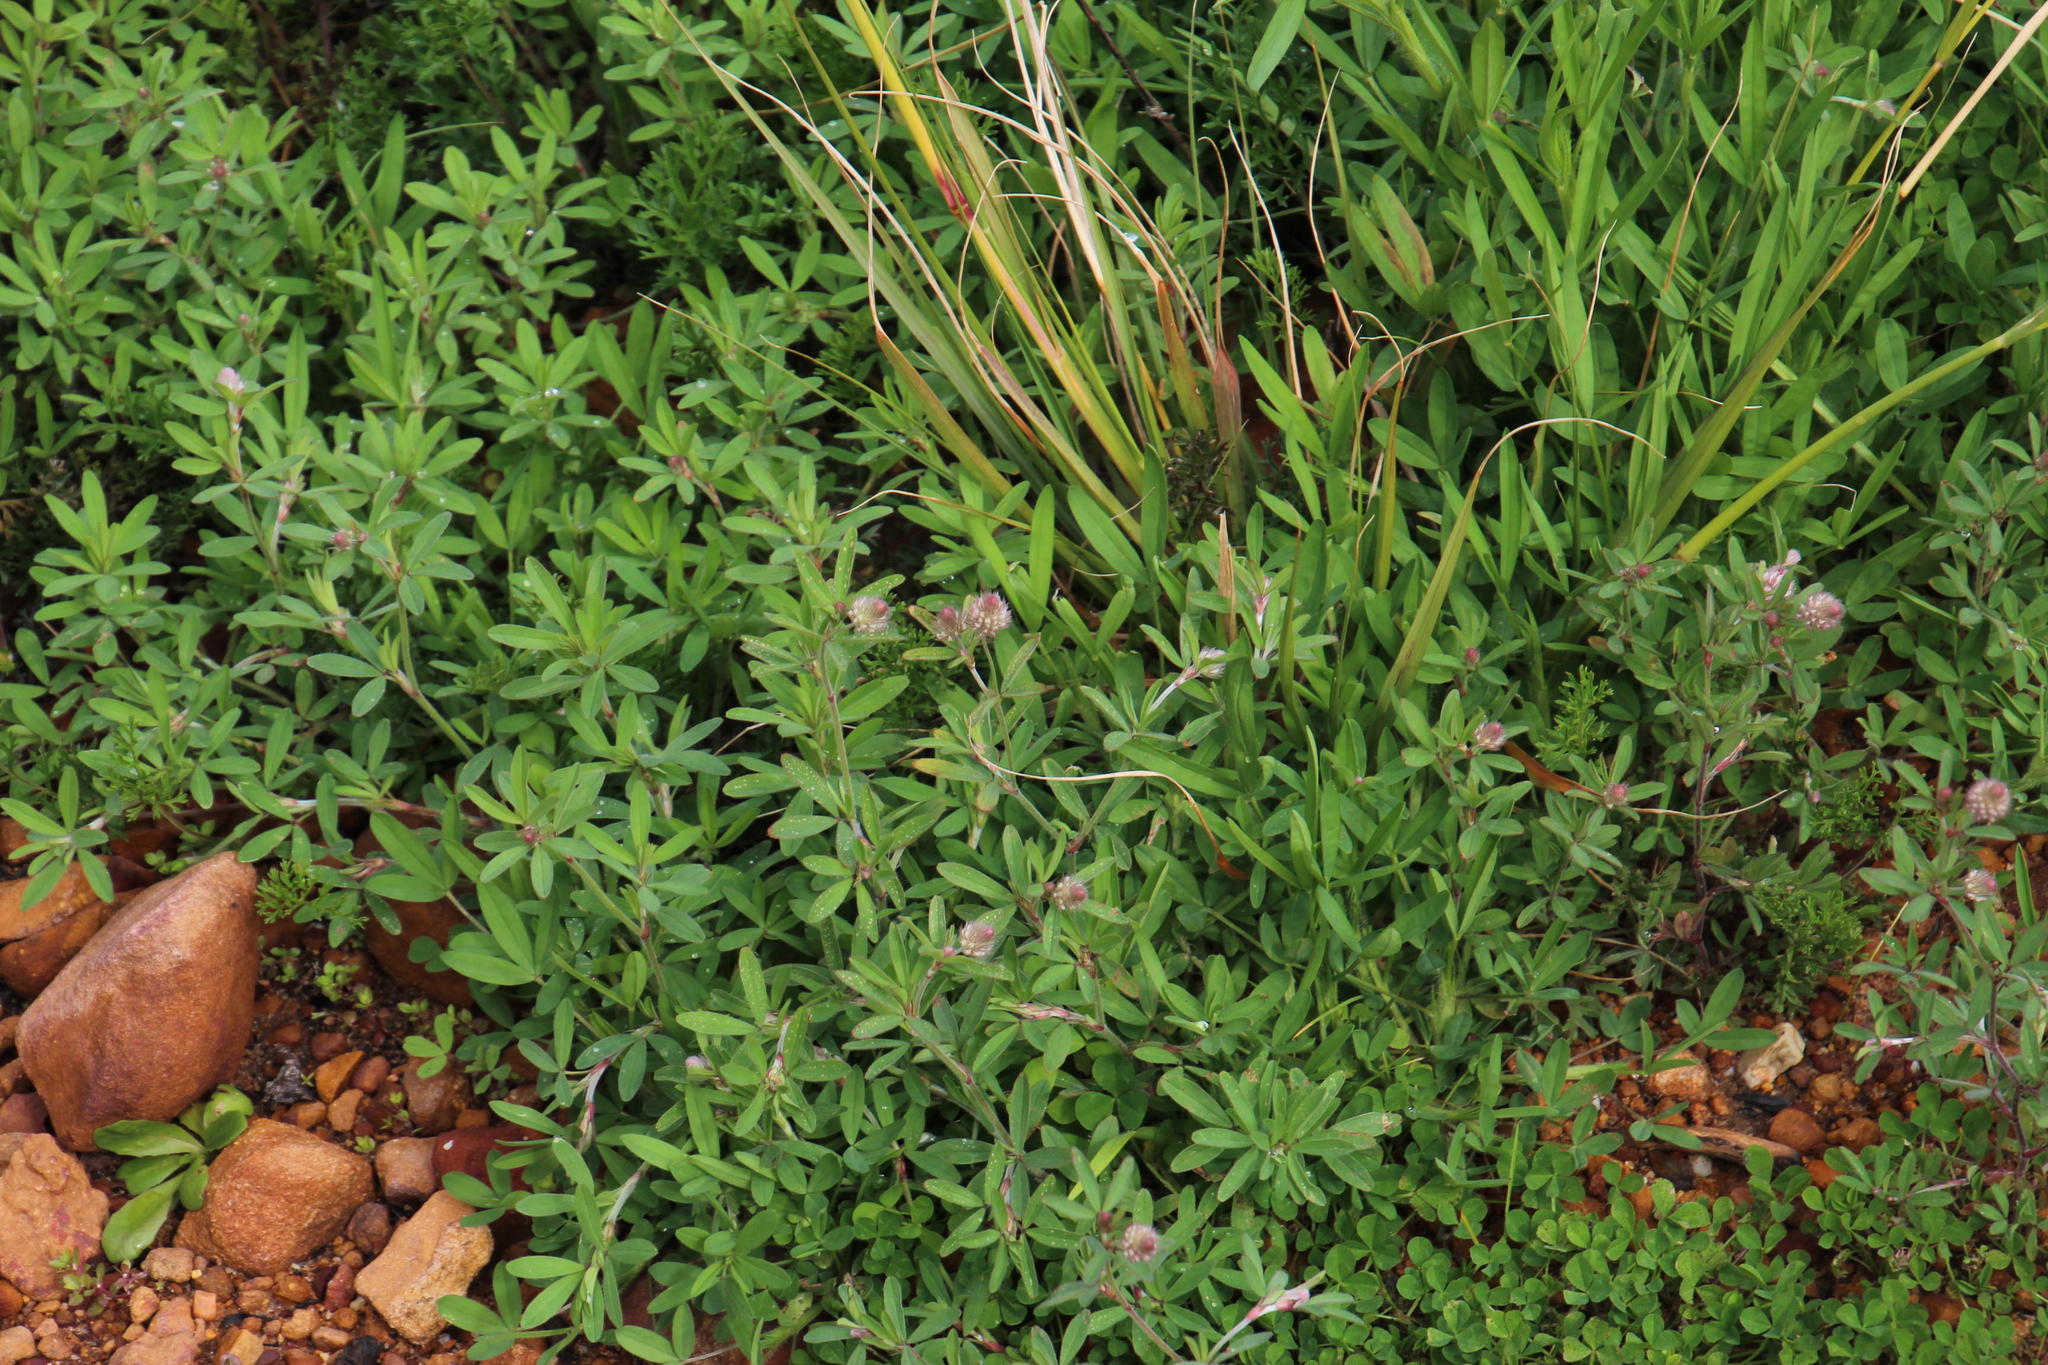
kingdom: Plantae
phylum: Tracheophyta
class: Magnoliopsida
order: Fabales
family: Fabaceae
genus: Trifolium
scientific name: Trifolium arvense
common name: Hare's-foot clover
